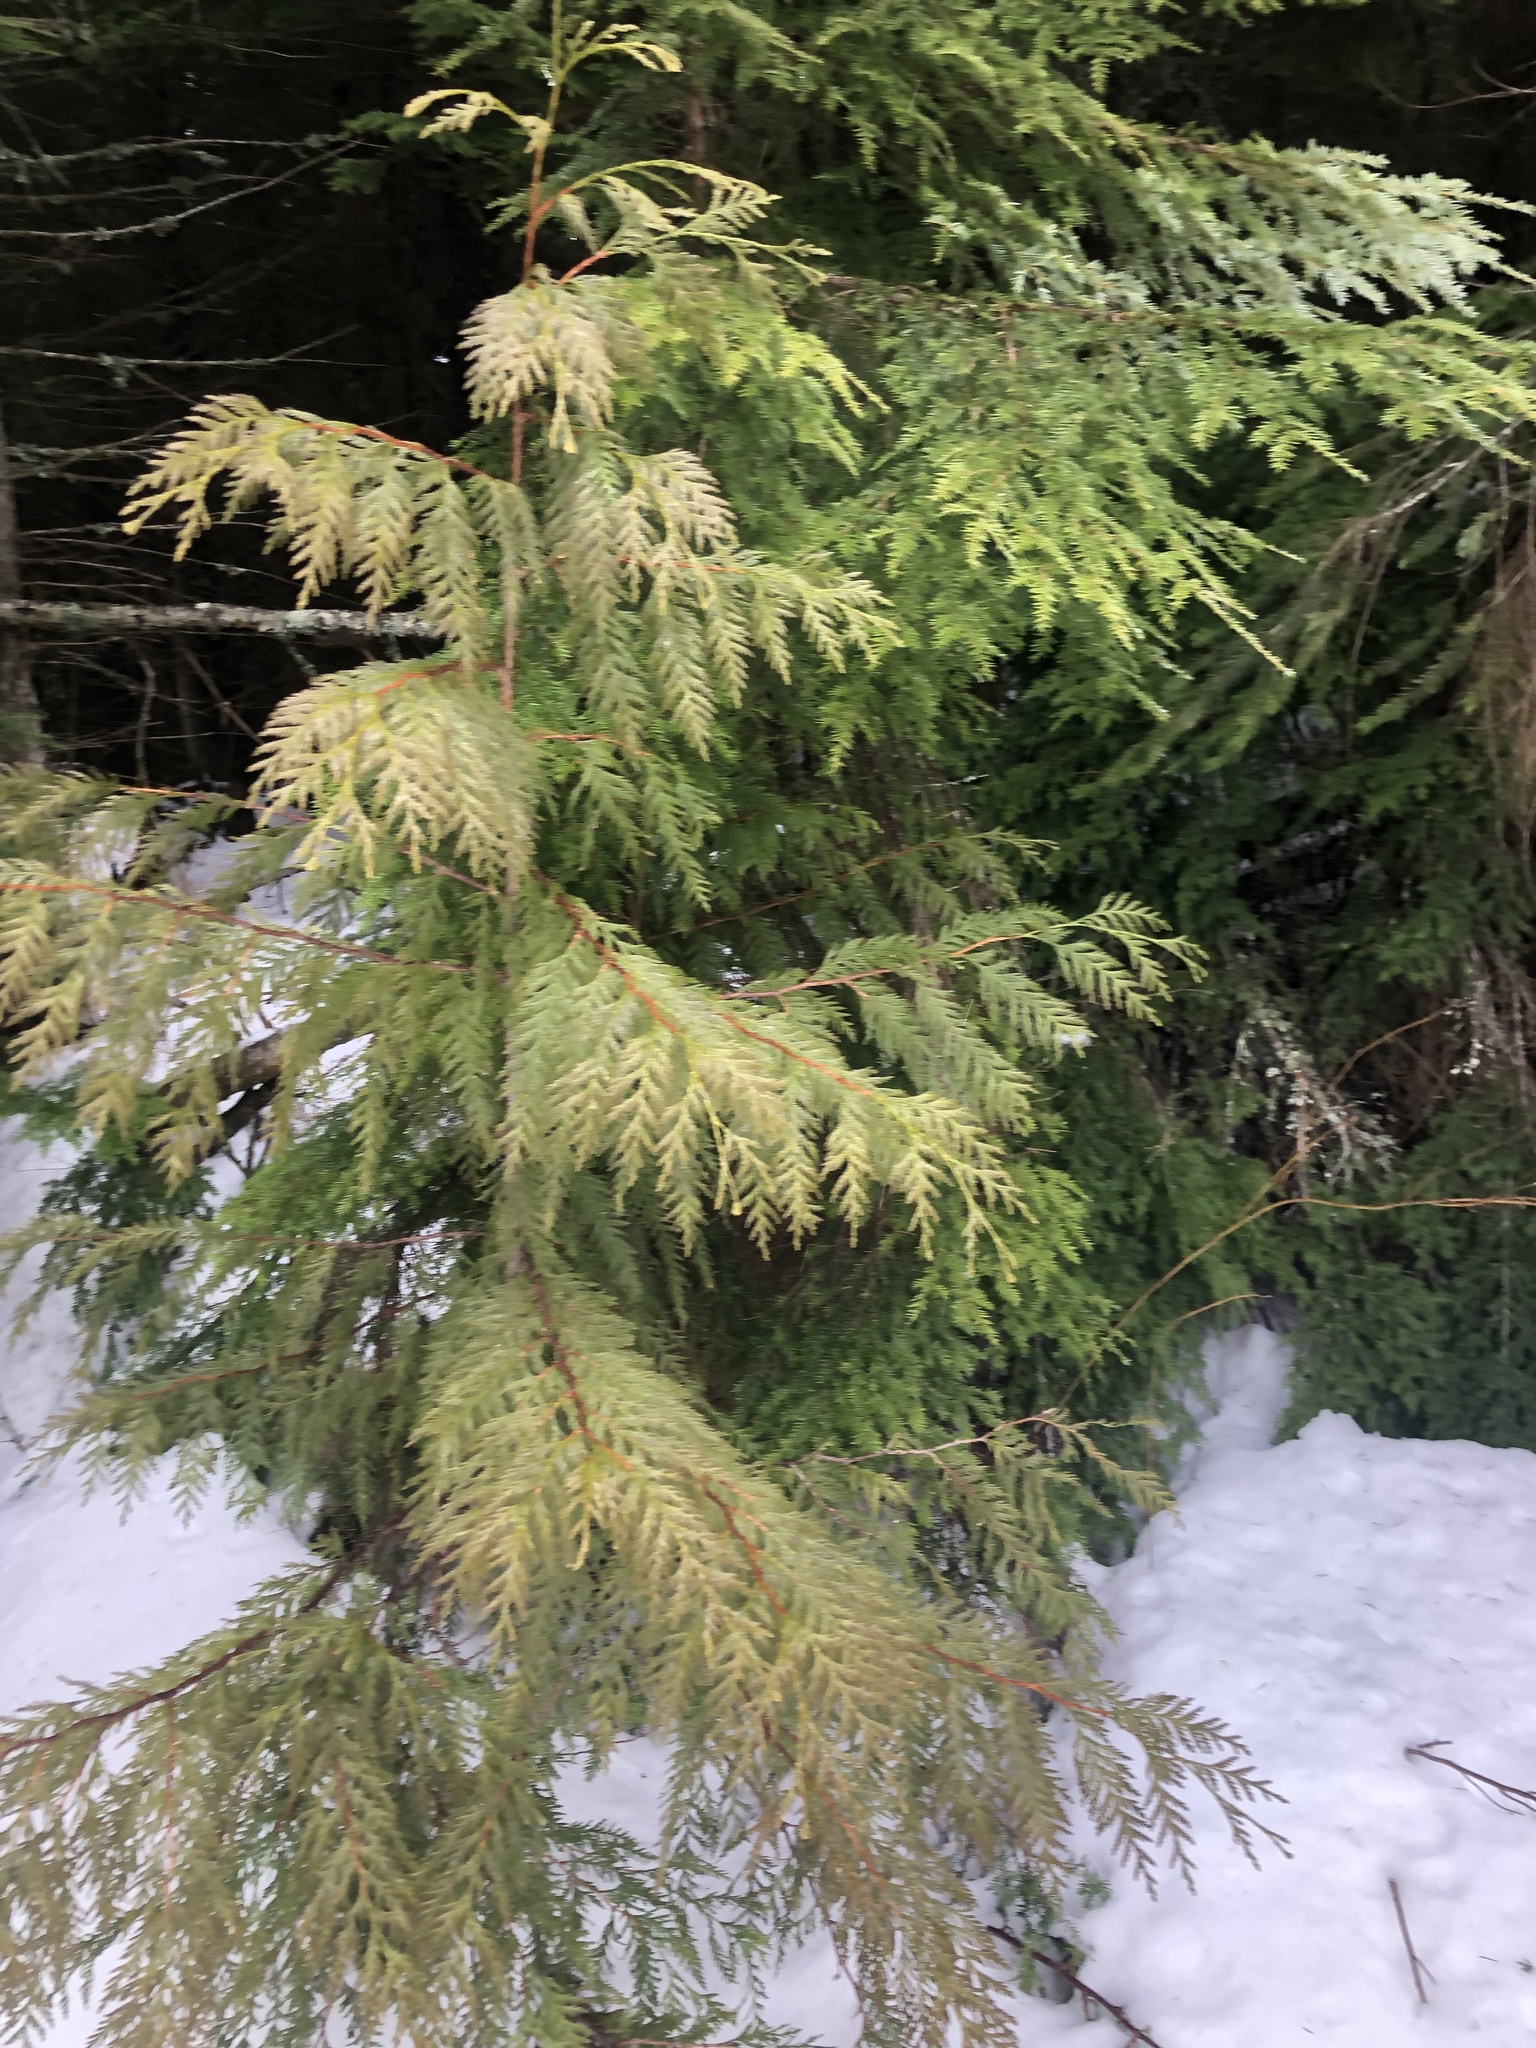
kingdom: Plantae
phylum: Tracheophyta
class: Pinopsida
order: Pinales
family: Cupressaceae
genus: Thuja
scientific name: Thuja plicata
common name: Western red-cedar
